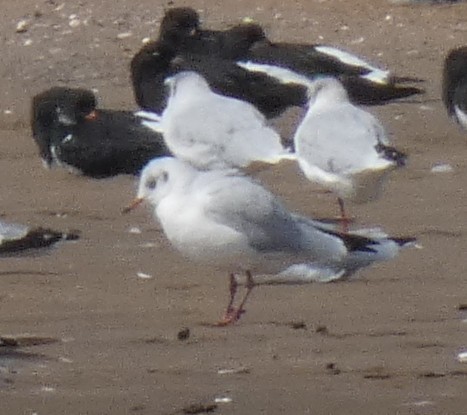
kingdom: Animalia
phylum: Chordata
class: Aves
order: Charadriiformes
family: Laridae
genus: Chroicocephalus
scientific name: Chroicocephalus ridibundus
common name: Black-headed gull
